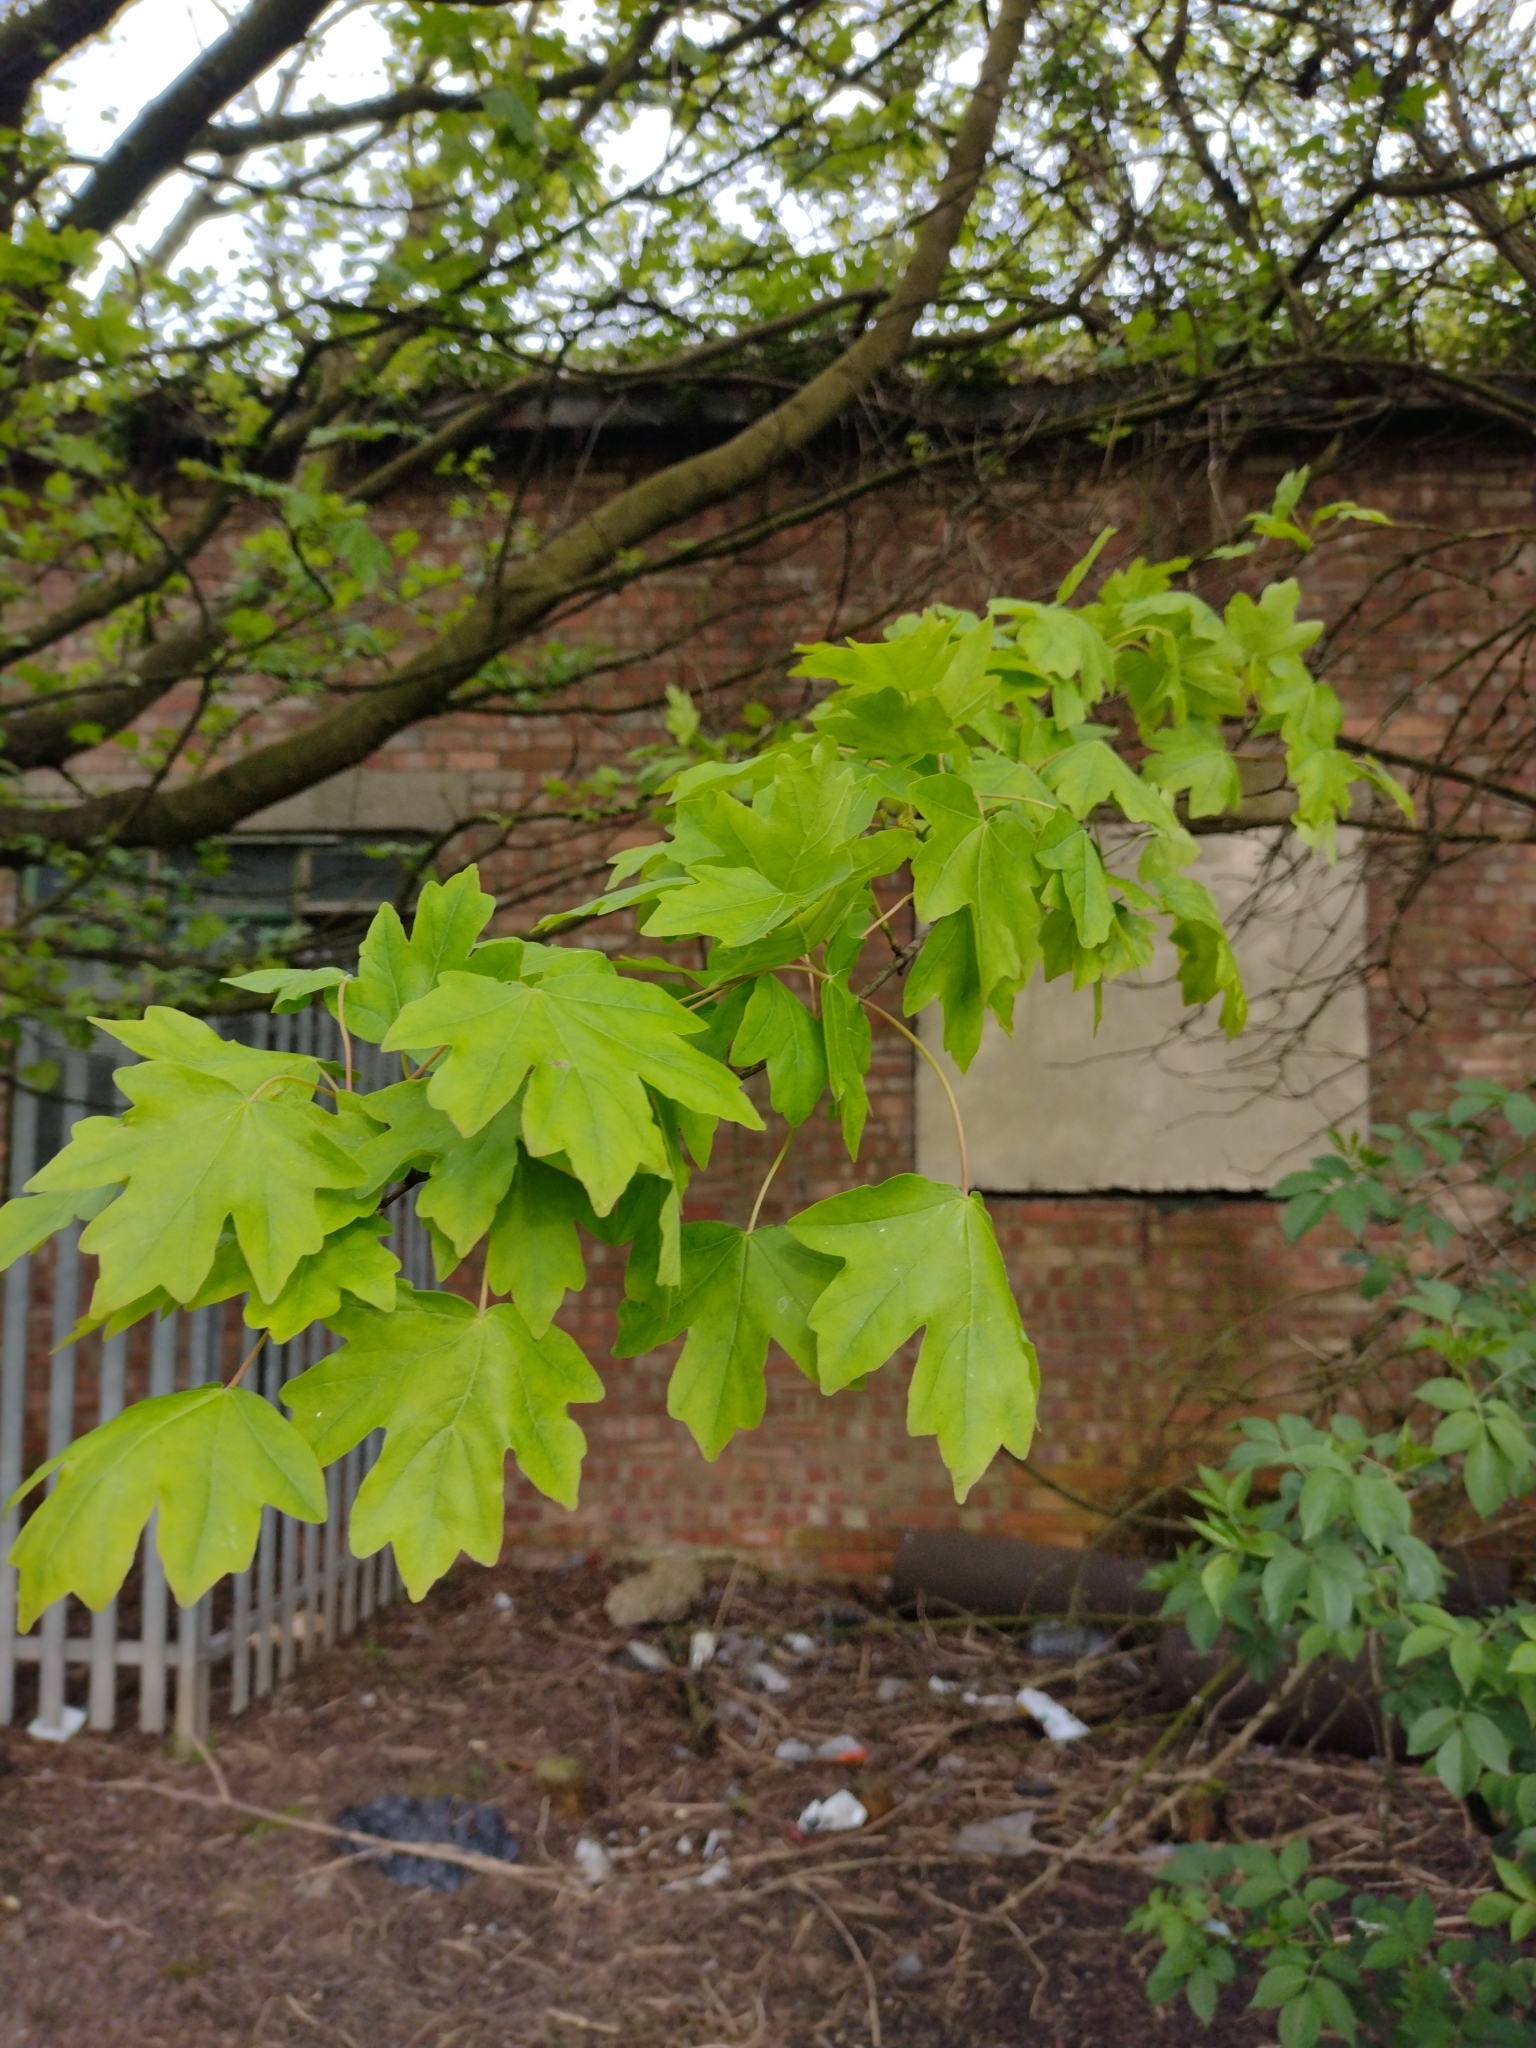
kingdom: Plantae
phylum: Tracheophyta
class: Magnoliopsida
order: Sapindales
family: Sapindaceae
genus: Acer
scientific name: Acer campestre
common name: Field maple
